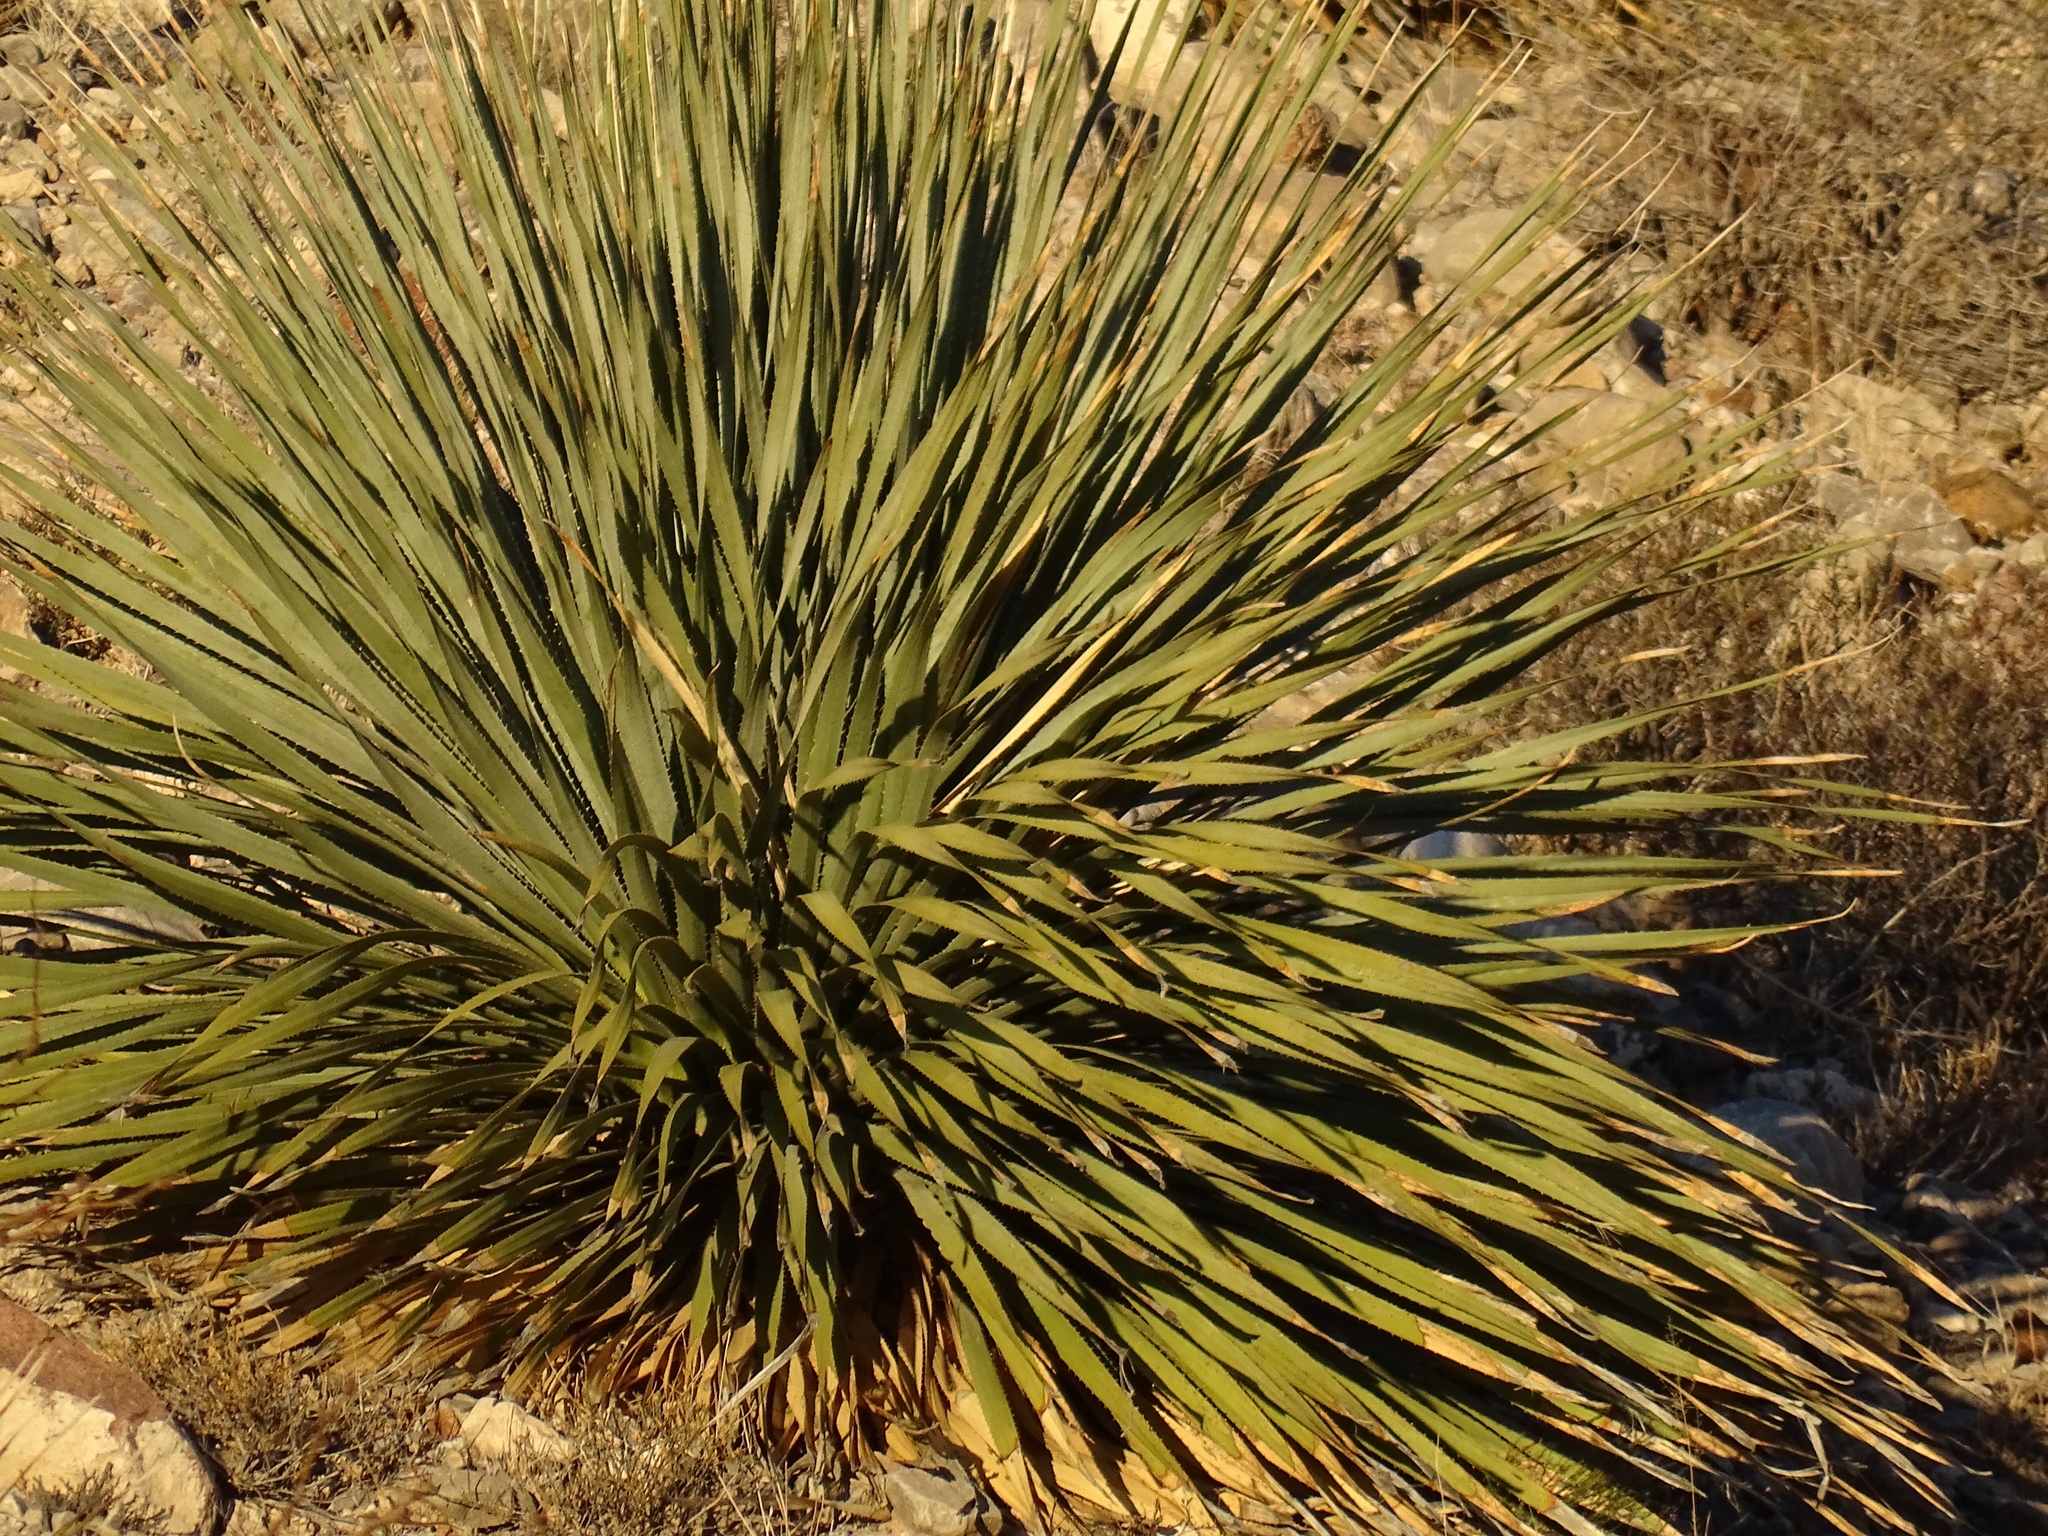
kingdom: Plantae
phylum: Tracheophyta
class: Liliopsida
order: Asparagales
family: Asparagaceae
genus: Dasylirion
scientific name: Dasylirion wheeleri
